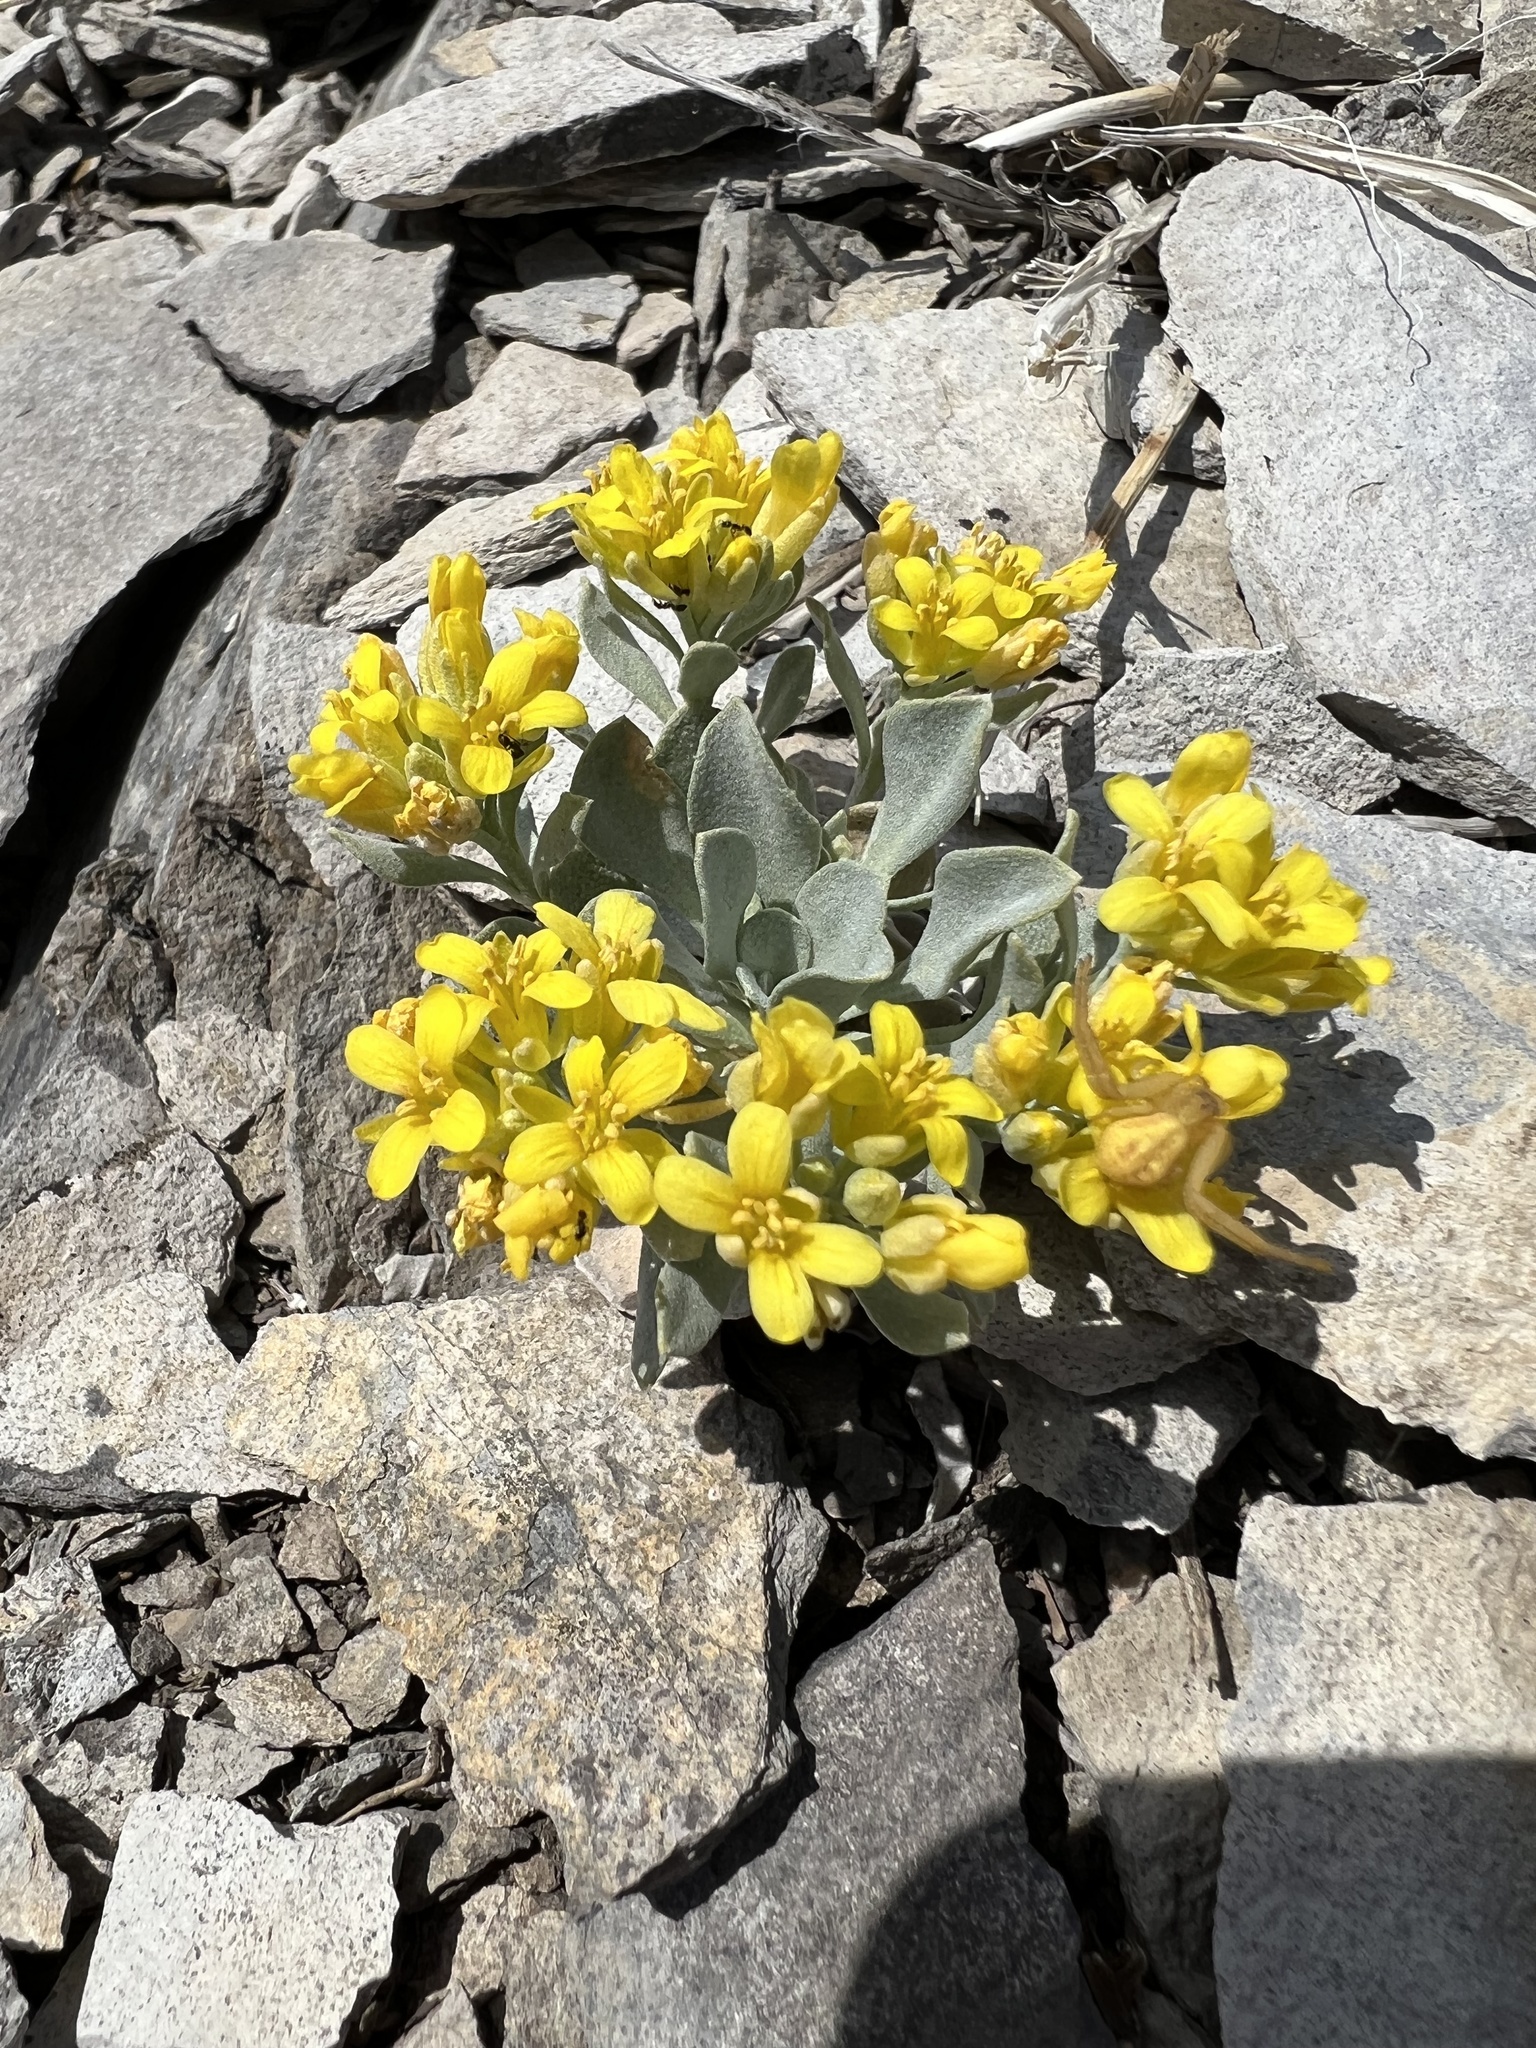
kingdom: Plantae
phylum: Tracheophyta
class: Magnoliopsida
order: Brassicales
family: Brassicaceae
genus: Physaria
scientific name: Physaria bellii
